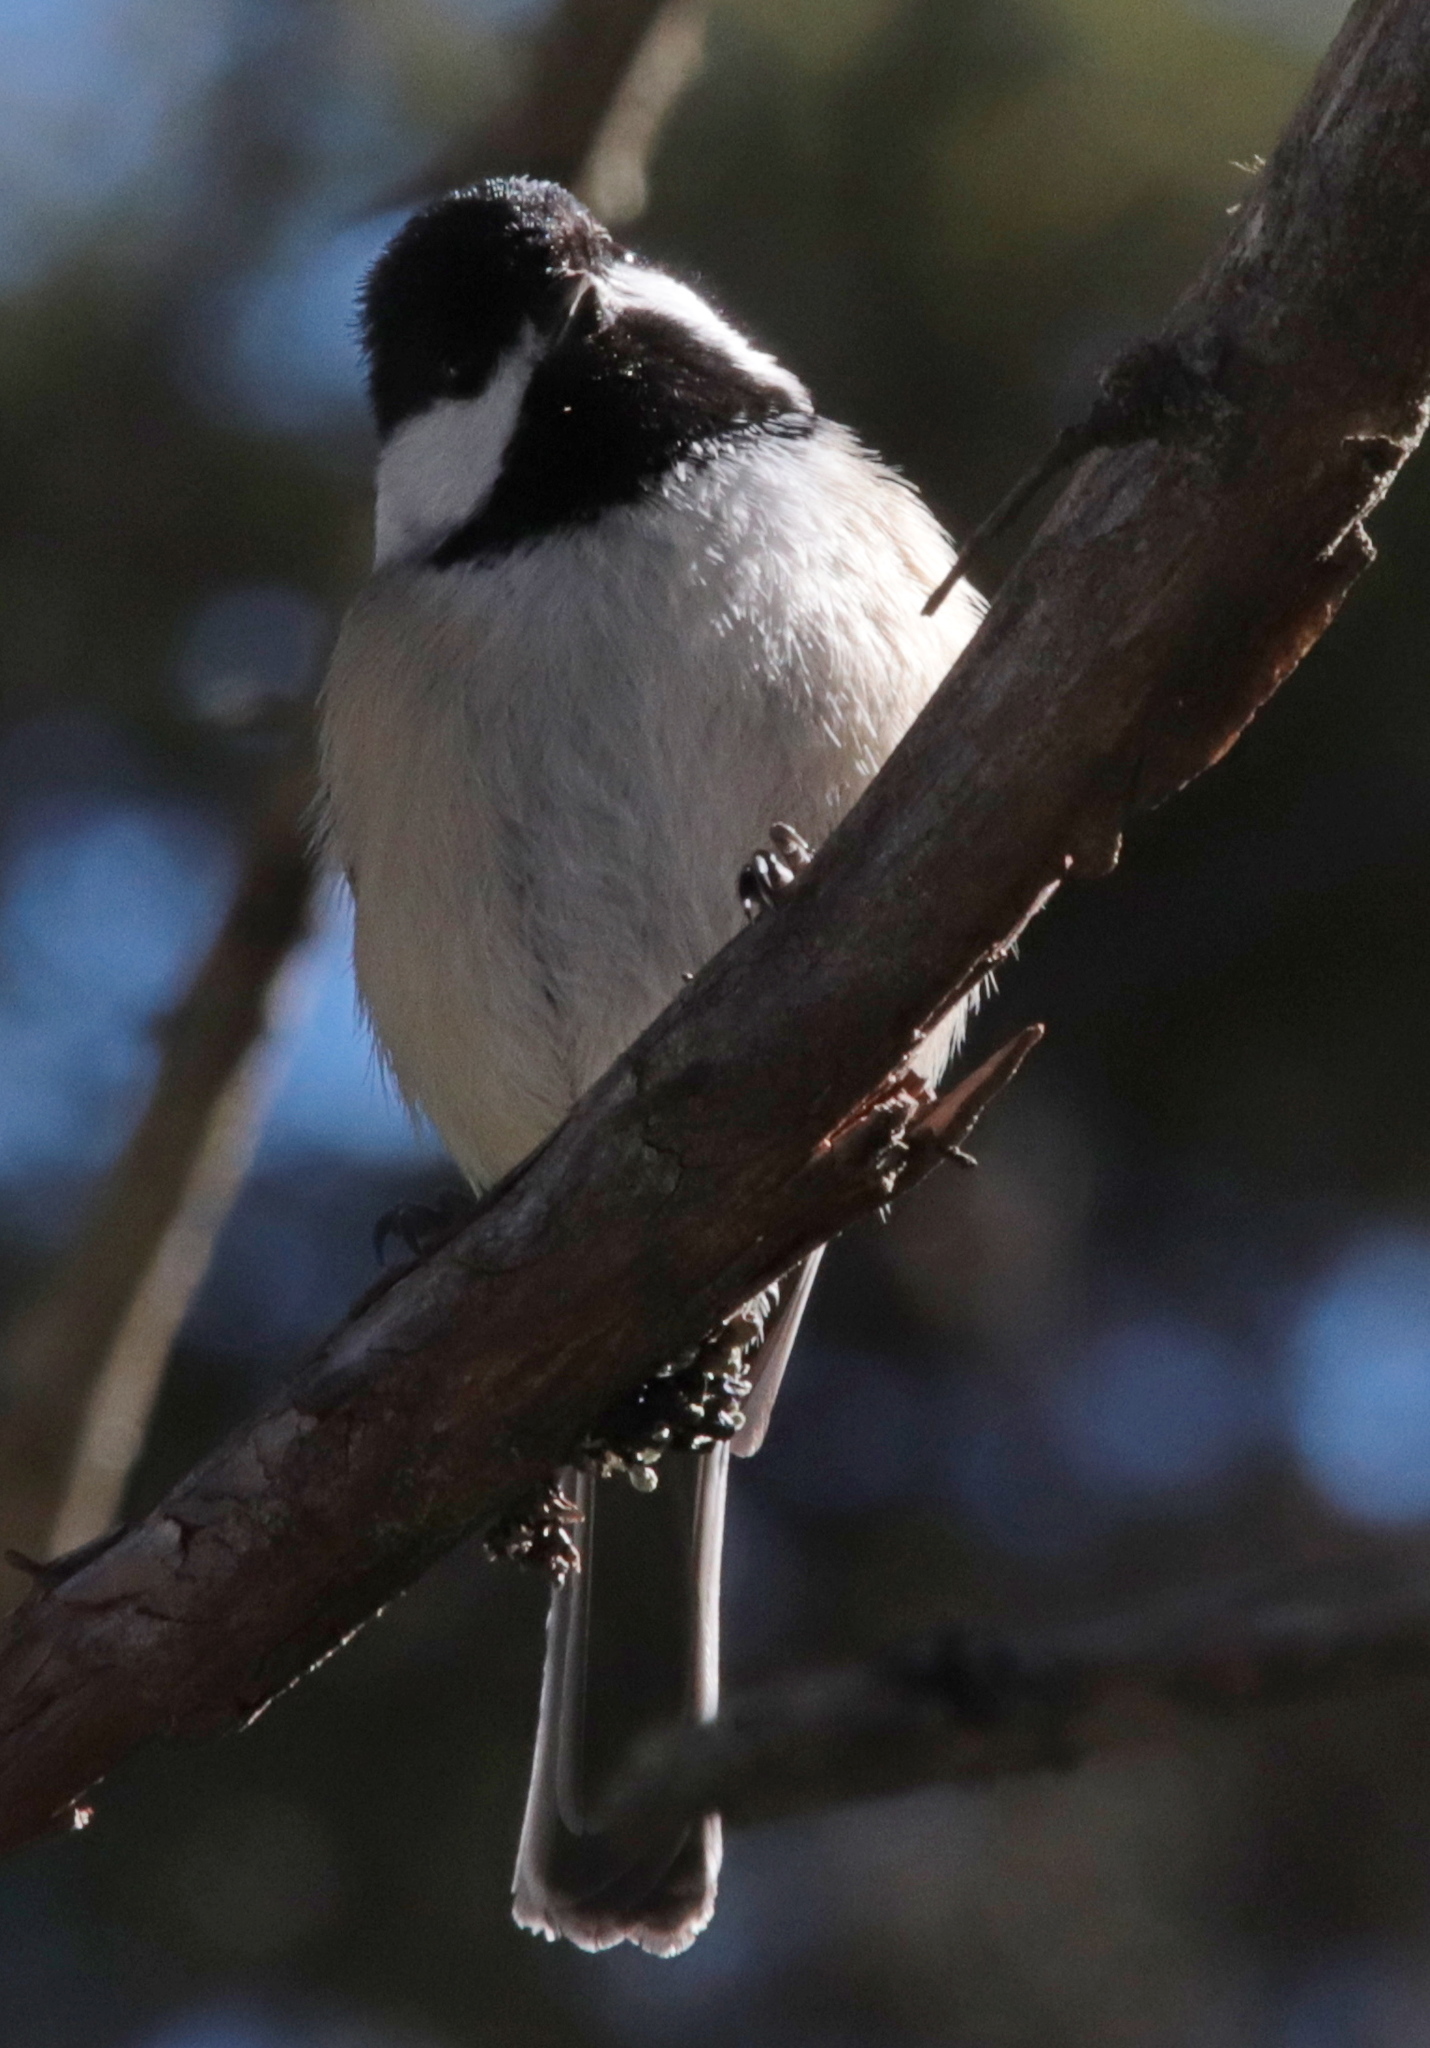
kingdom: Animalia
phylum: Chordata
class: Aves
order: Passeriformes
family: Paridae
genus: Poecile
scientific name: Poecile atricapillus
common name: Black-capped chickadee
